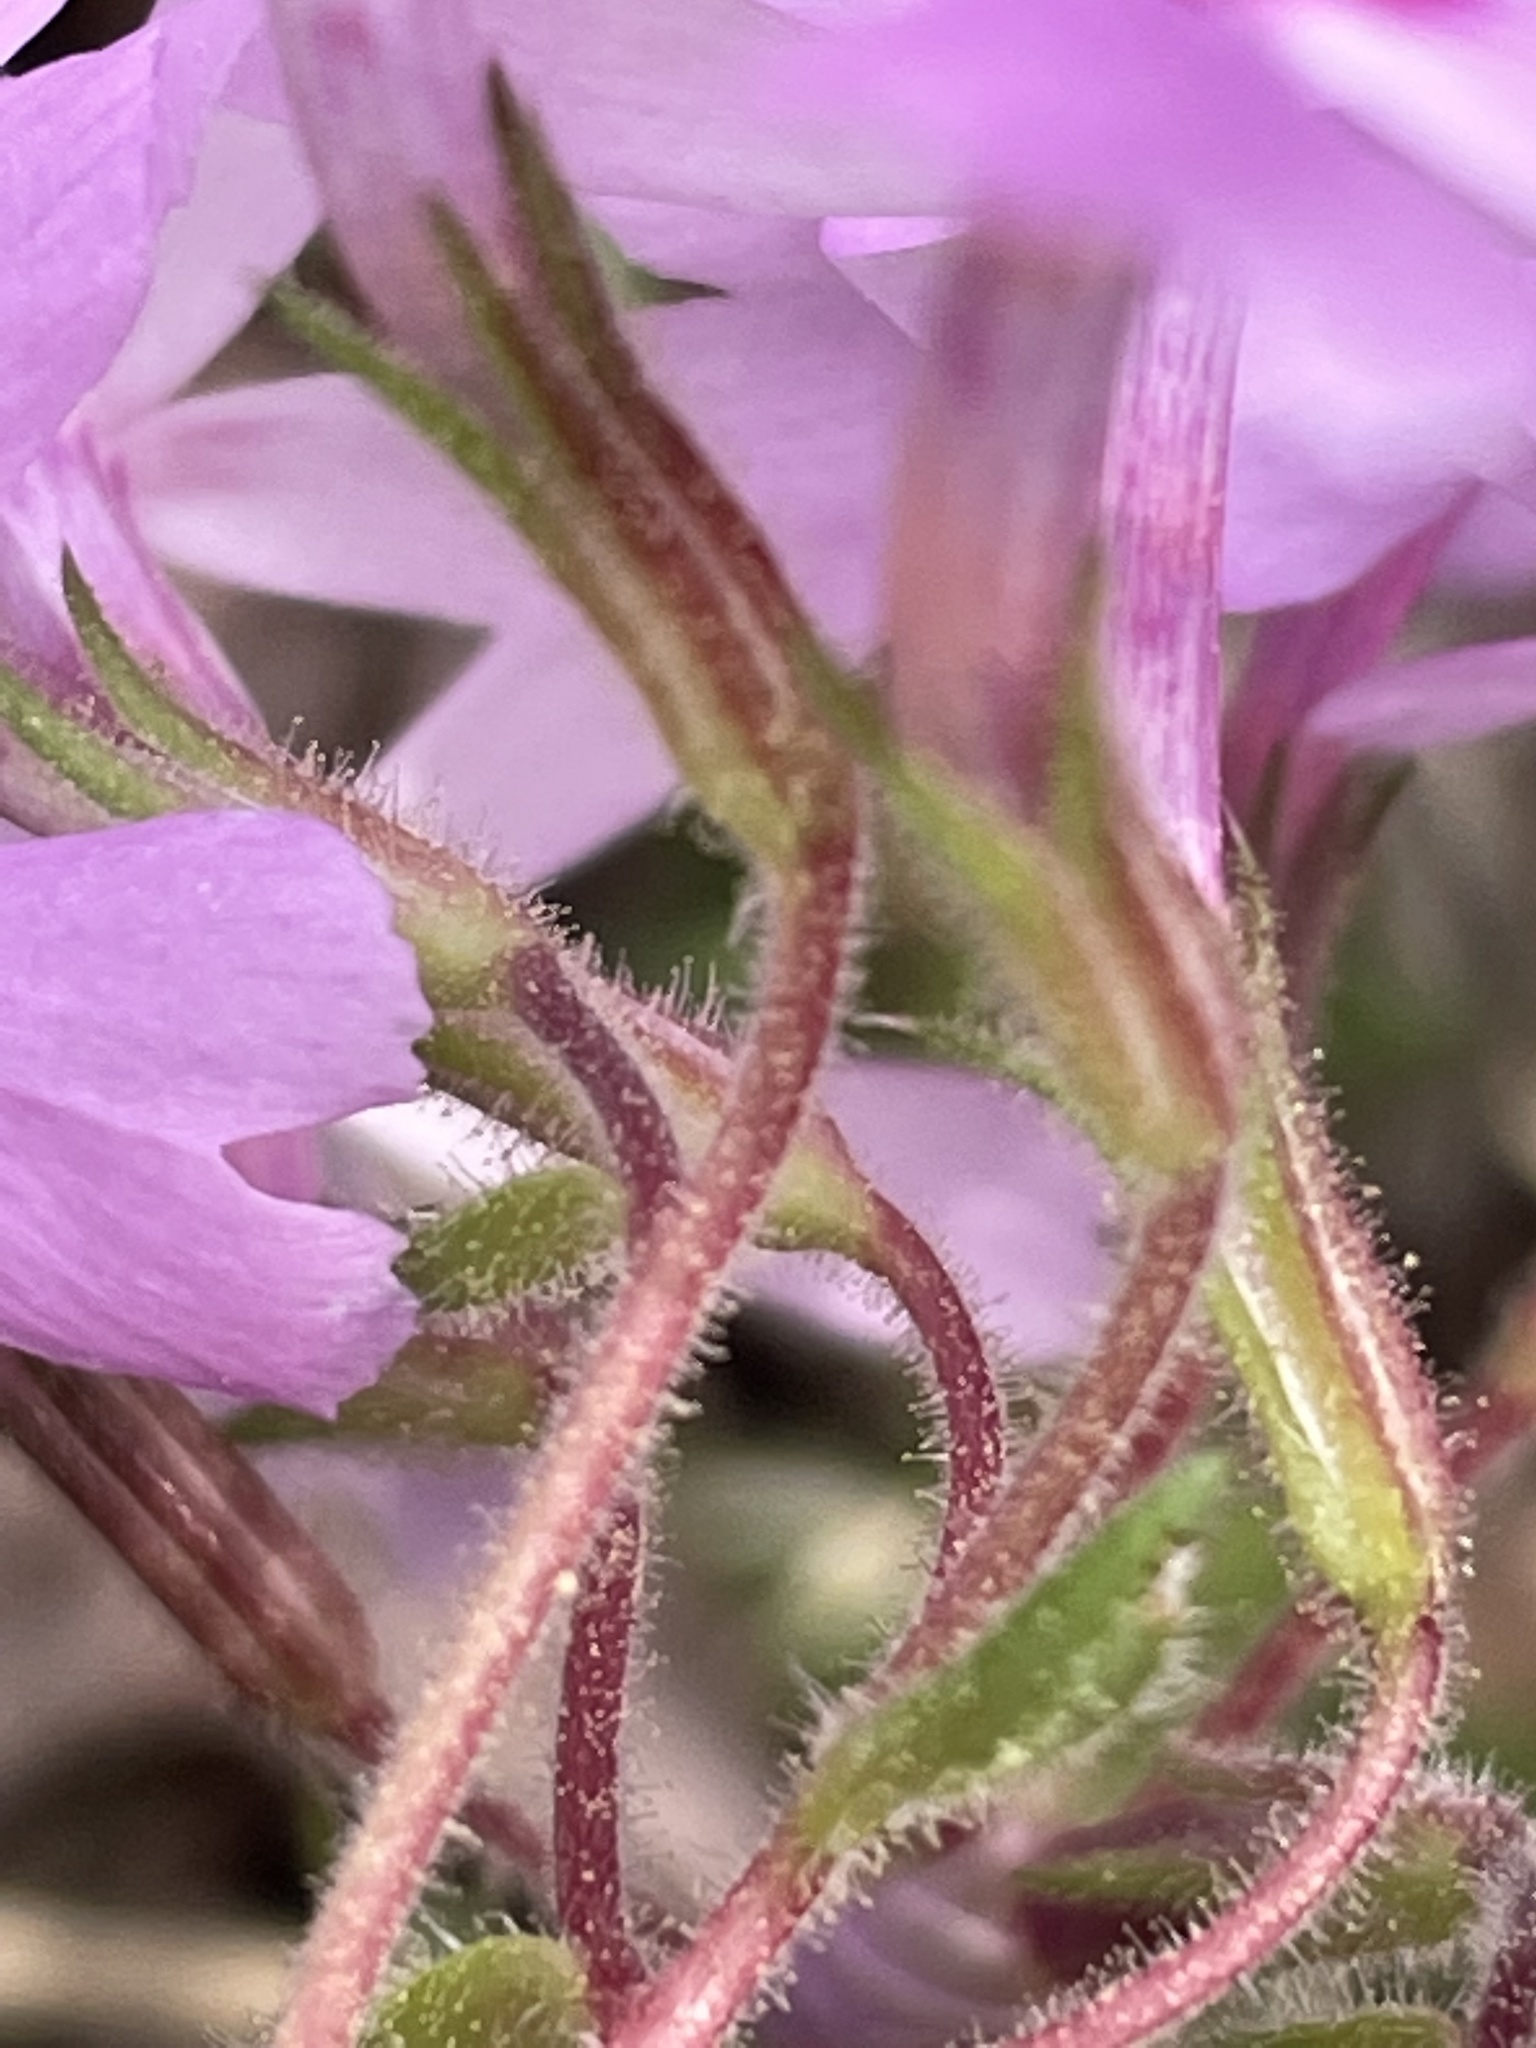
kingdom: Plantae
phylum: Tracheophyta
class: Magnoliopsida
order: Ericales
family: Polemoniaceae
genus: Phlox
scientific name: Phlox nivalis
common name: Trailing phlox
